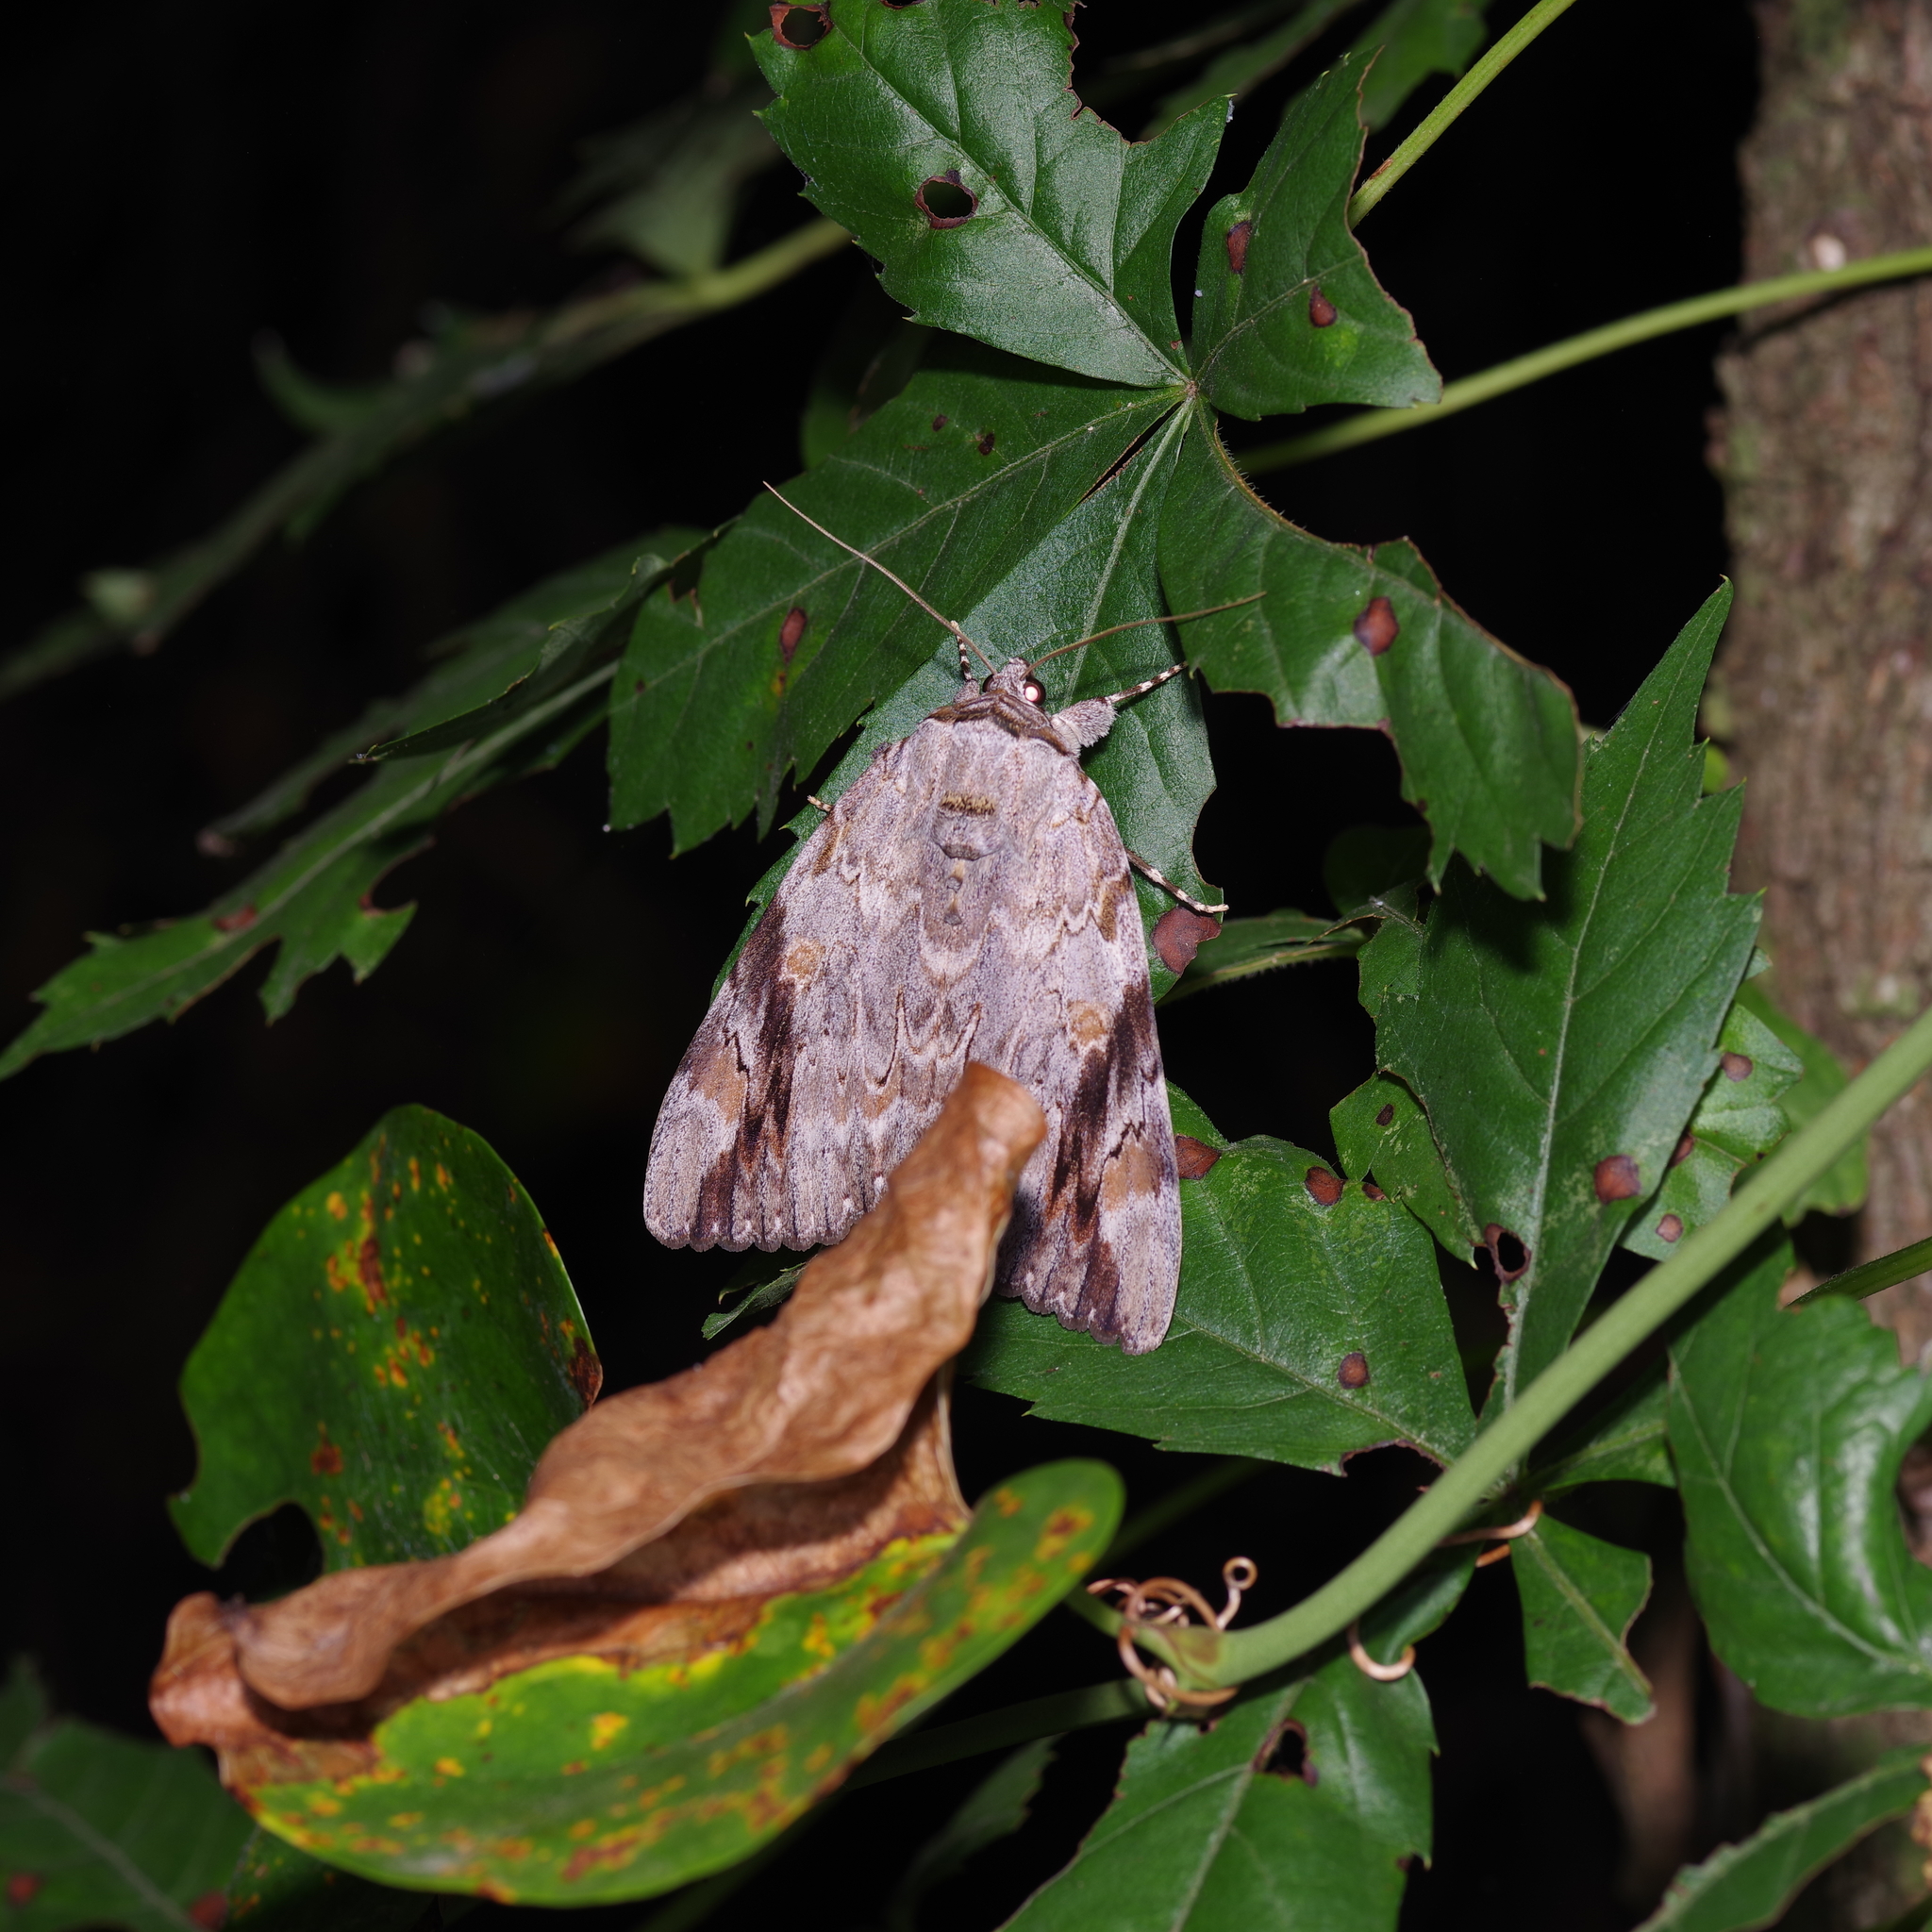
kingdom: Animalia
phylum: Arthropoda
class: Insecta
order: Lepidoptera
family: Erebidae
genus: Catocala
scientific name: Catocala maestosa
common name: Sad underwing
